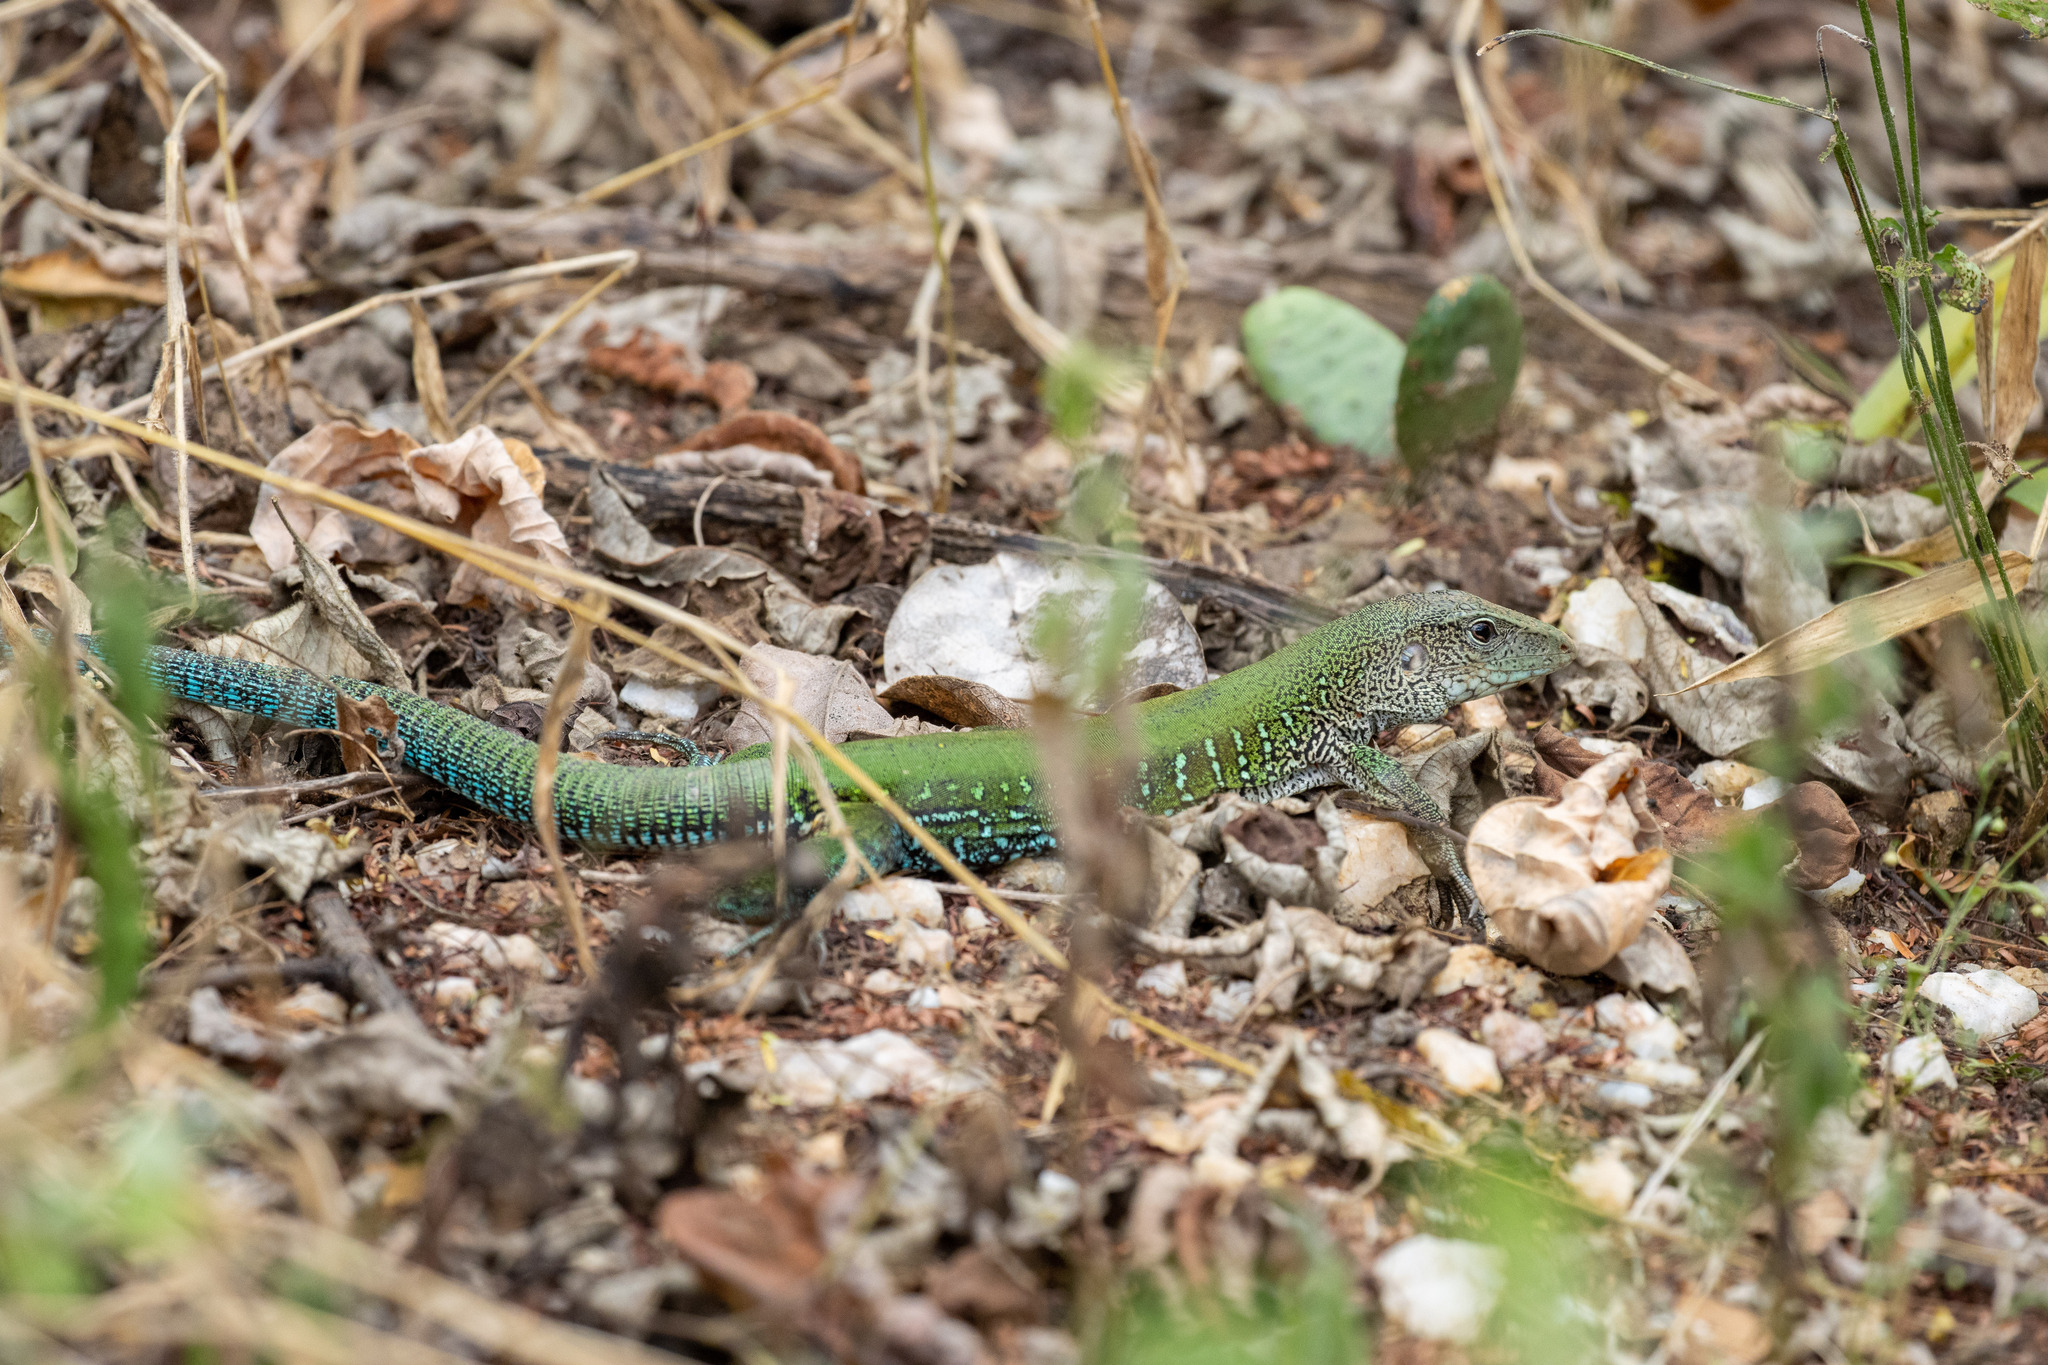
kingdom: Animalia
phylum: Chordata
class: Squamata
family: Teiidae
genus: Ameiva
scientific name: Ameiva ameiva
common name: Giant ameiva
